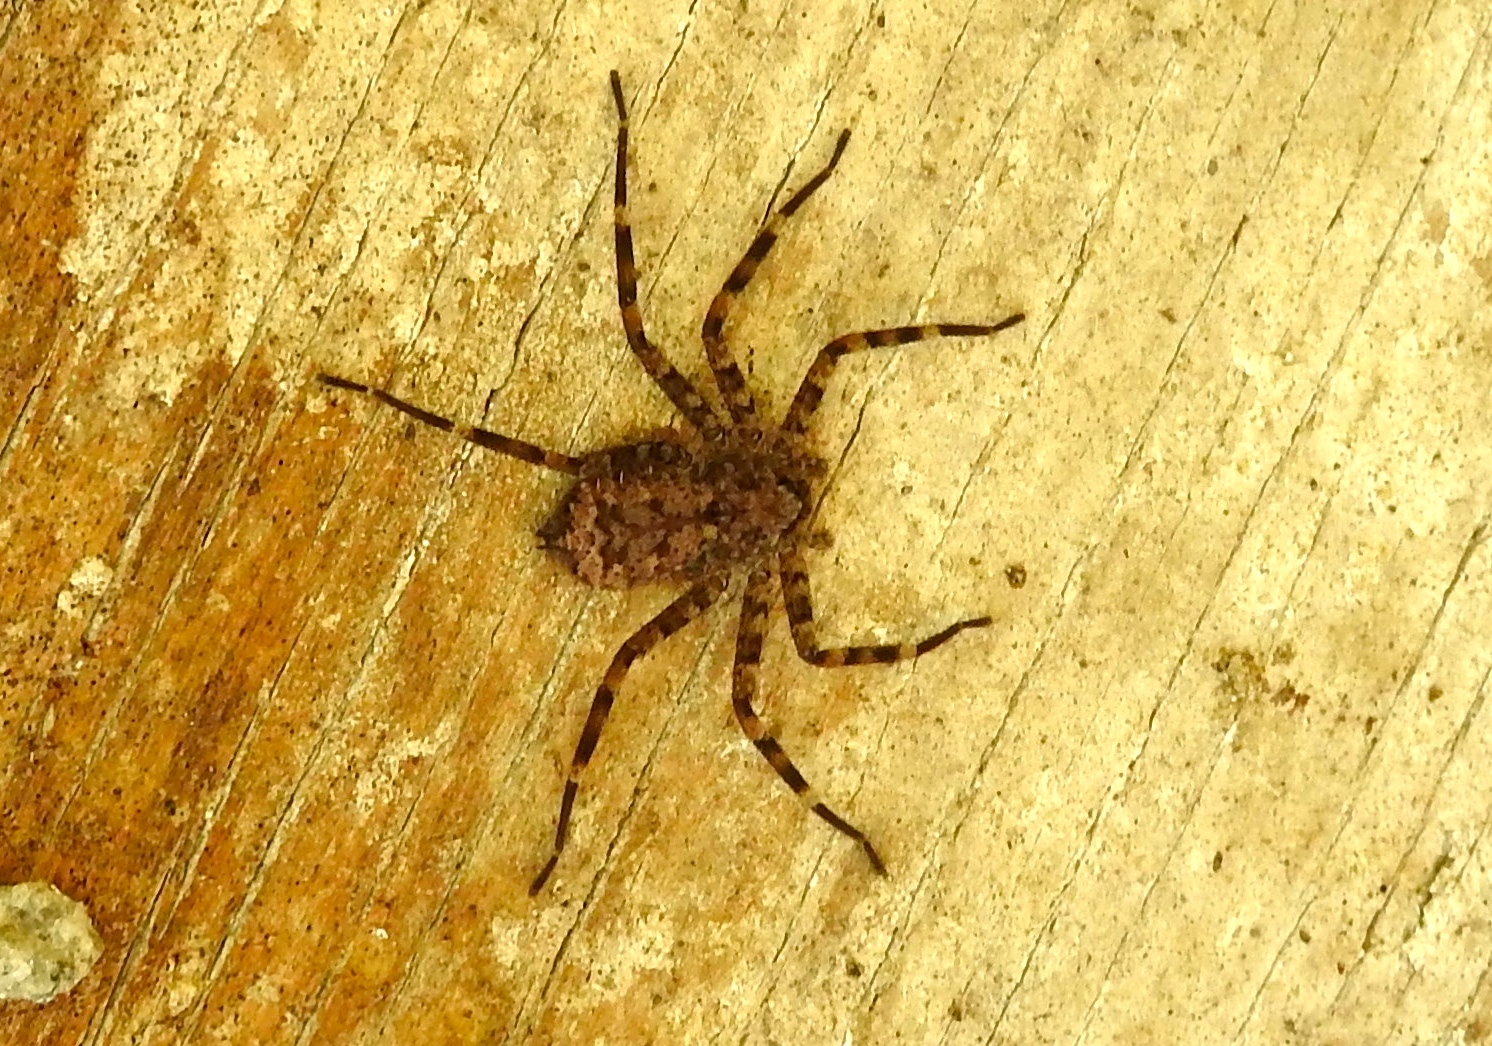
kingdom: Animalia
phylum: Arthropoda
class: Arachnida
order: Araneae
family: Selenopidae
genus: Selenops
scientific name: Selenops actophilus
